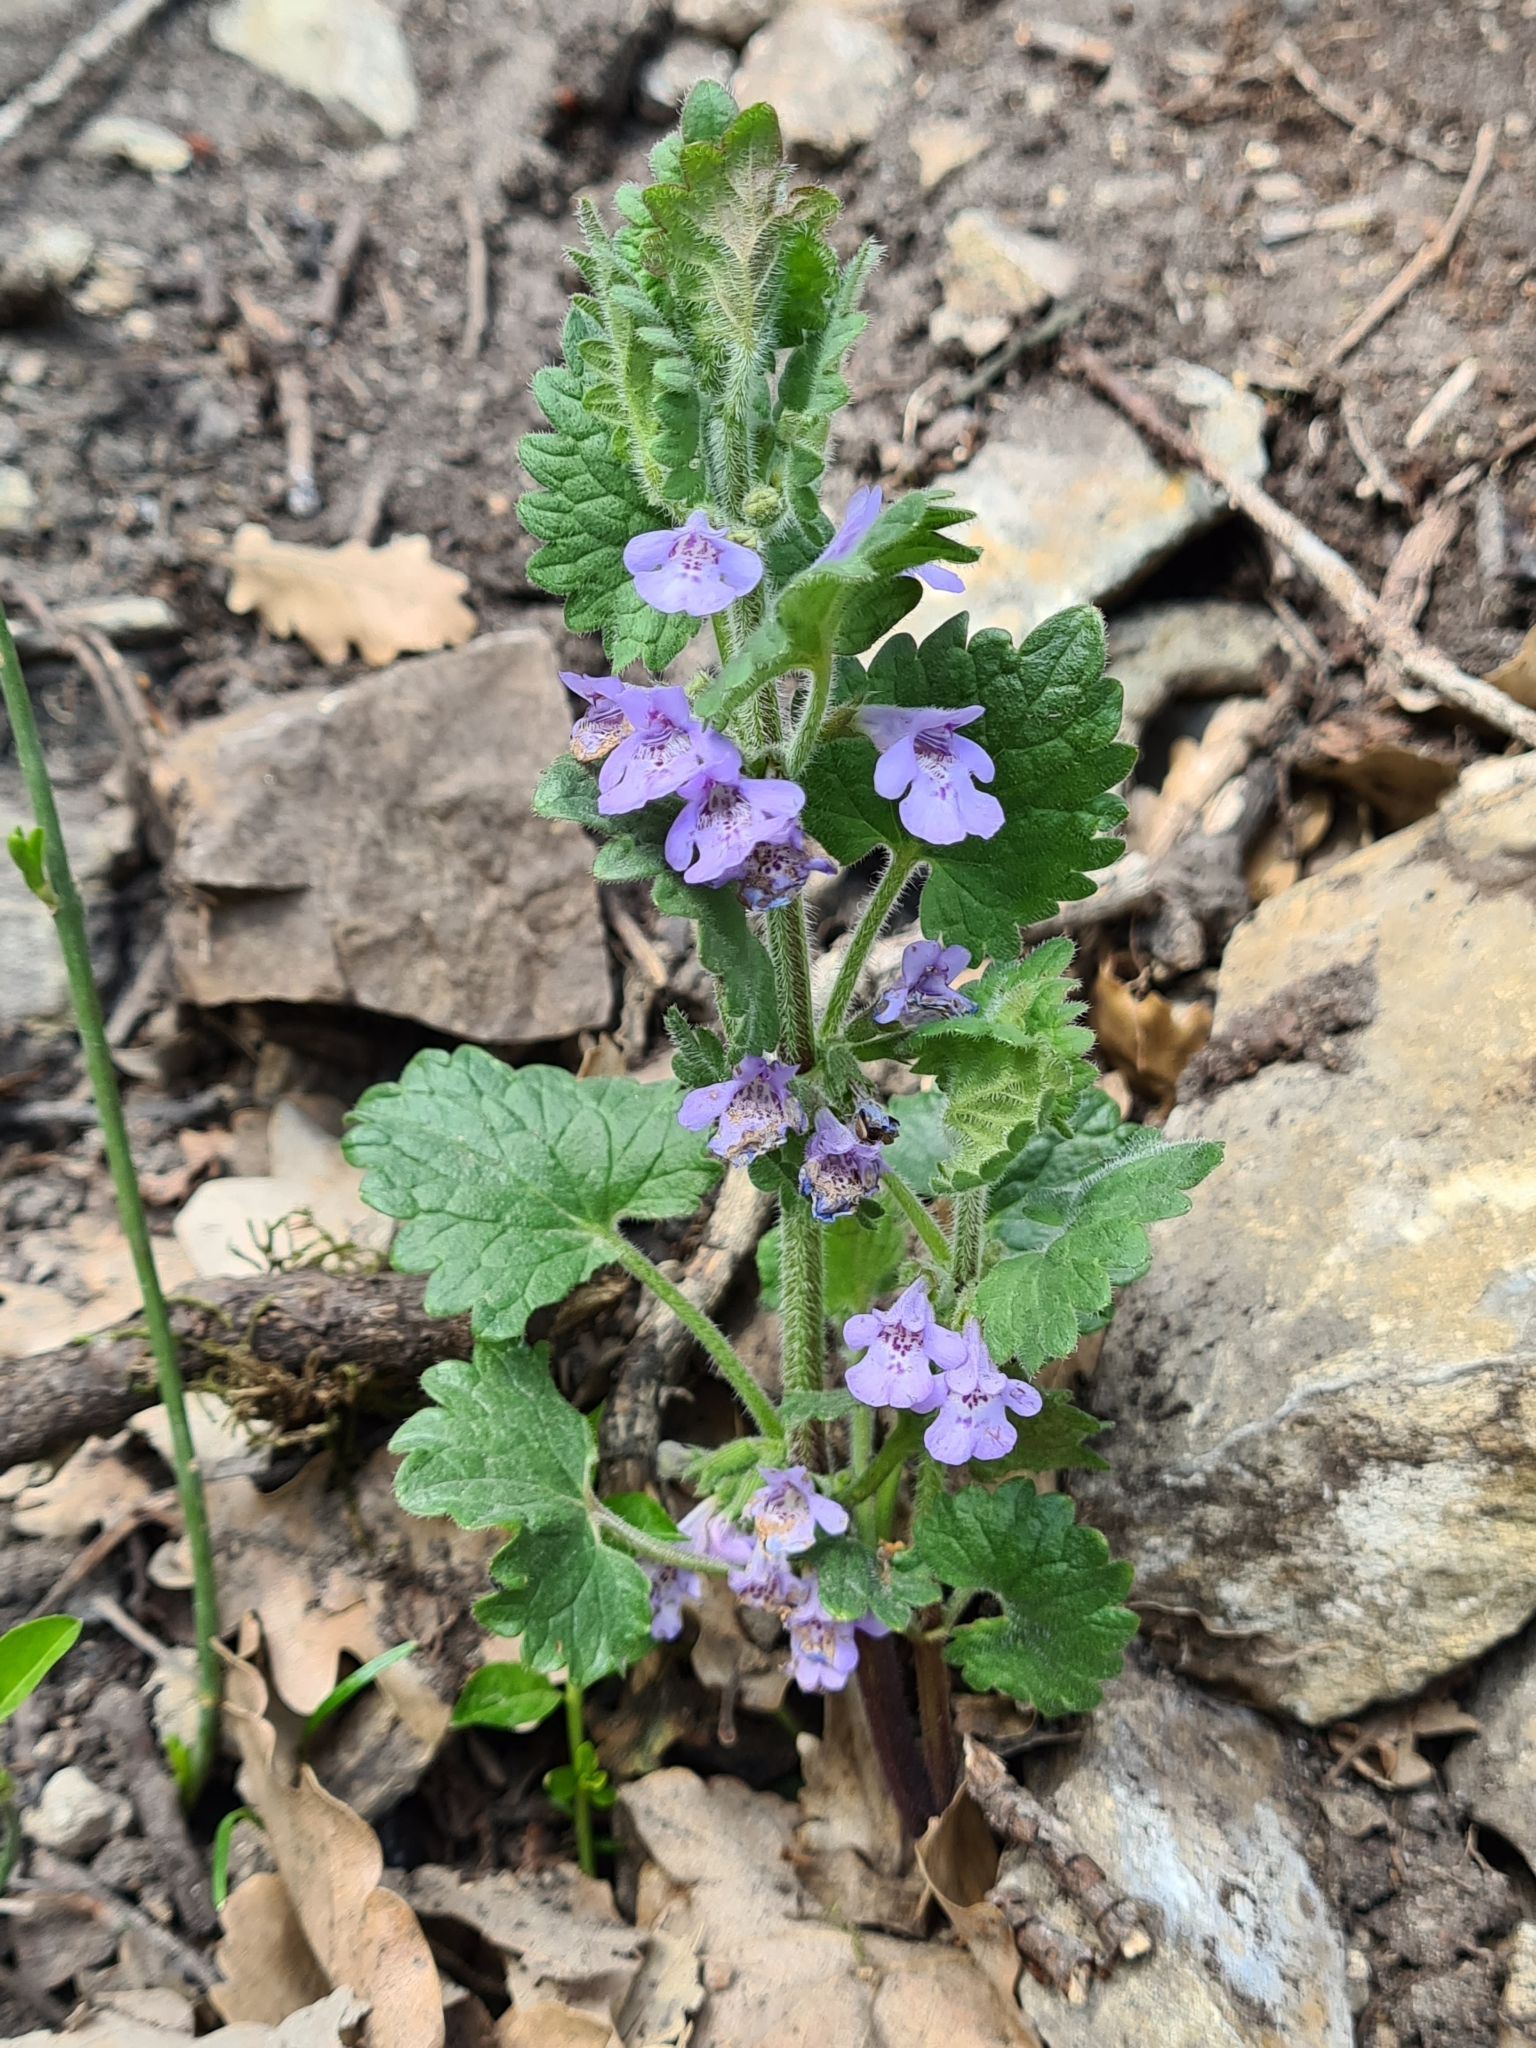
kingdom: Plantae
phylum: Tracheophyta
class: Magnoliopsida
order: Lamiales
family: Lamiaceae
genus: Glechoma
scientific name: Glechoma hirsuta
